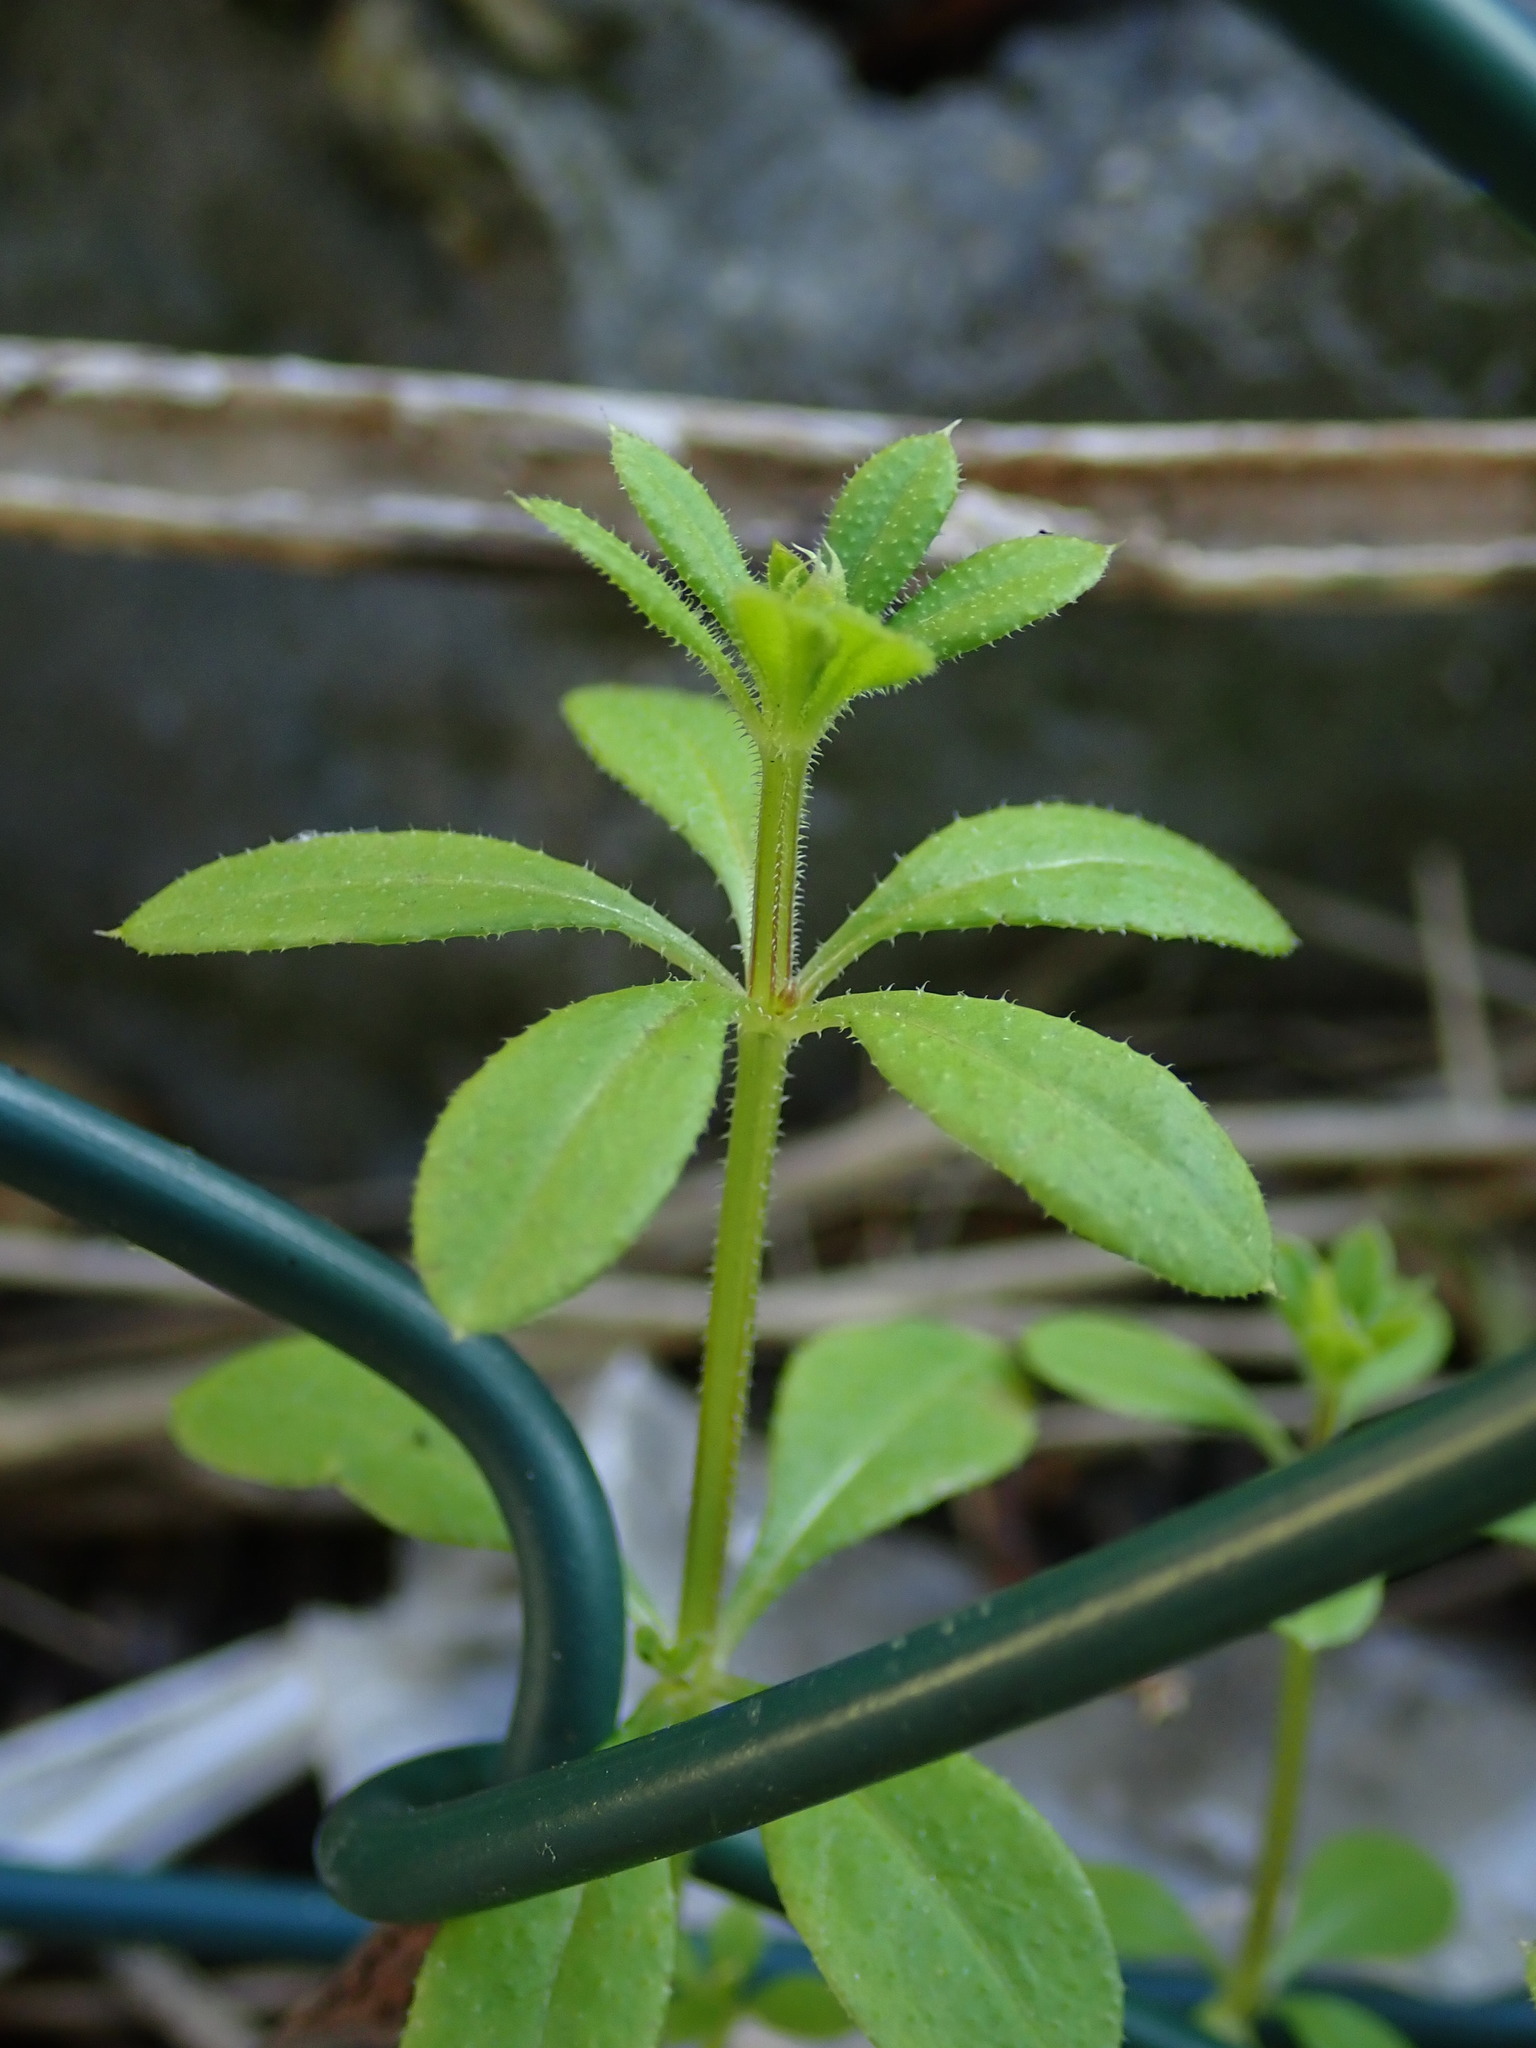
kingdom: Plantae
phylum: Tracheophyta
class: Magnoliopsida
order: Gentianales
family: Rubiaceae
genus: Galium
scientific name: Galium aparine
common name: Cleavers
